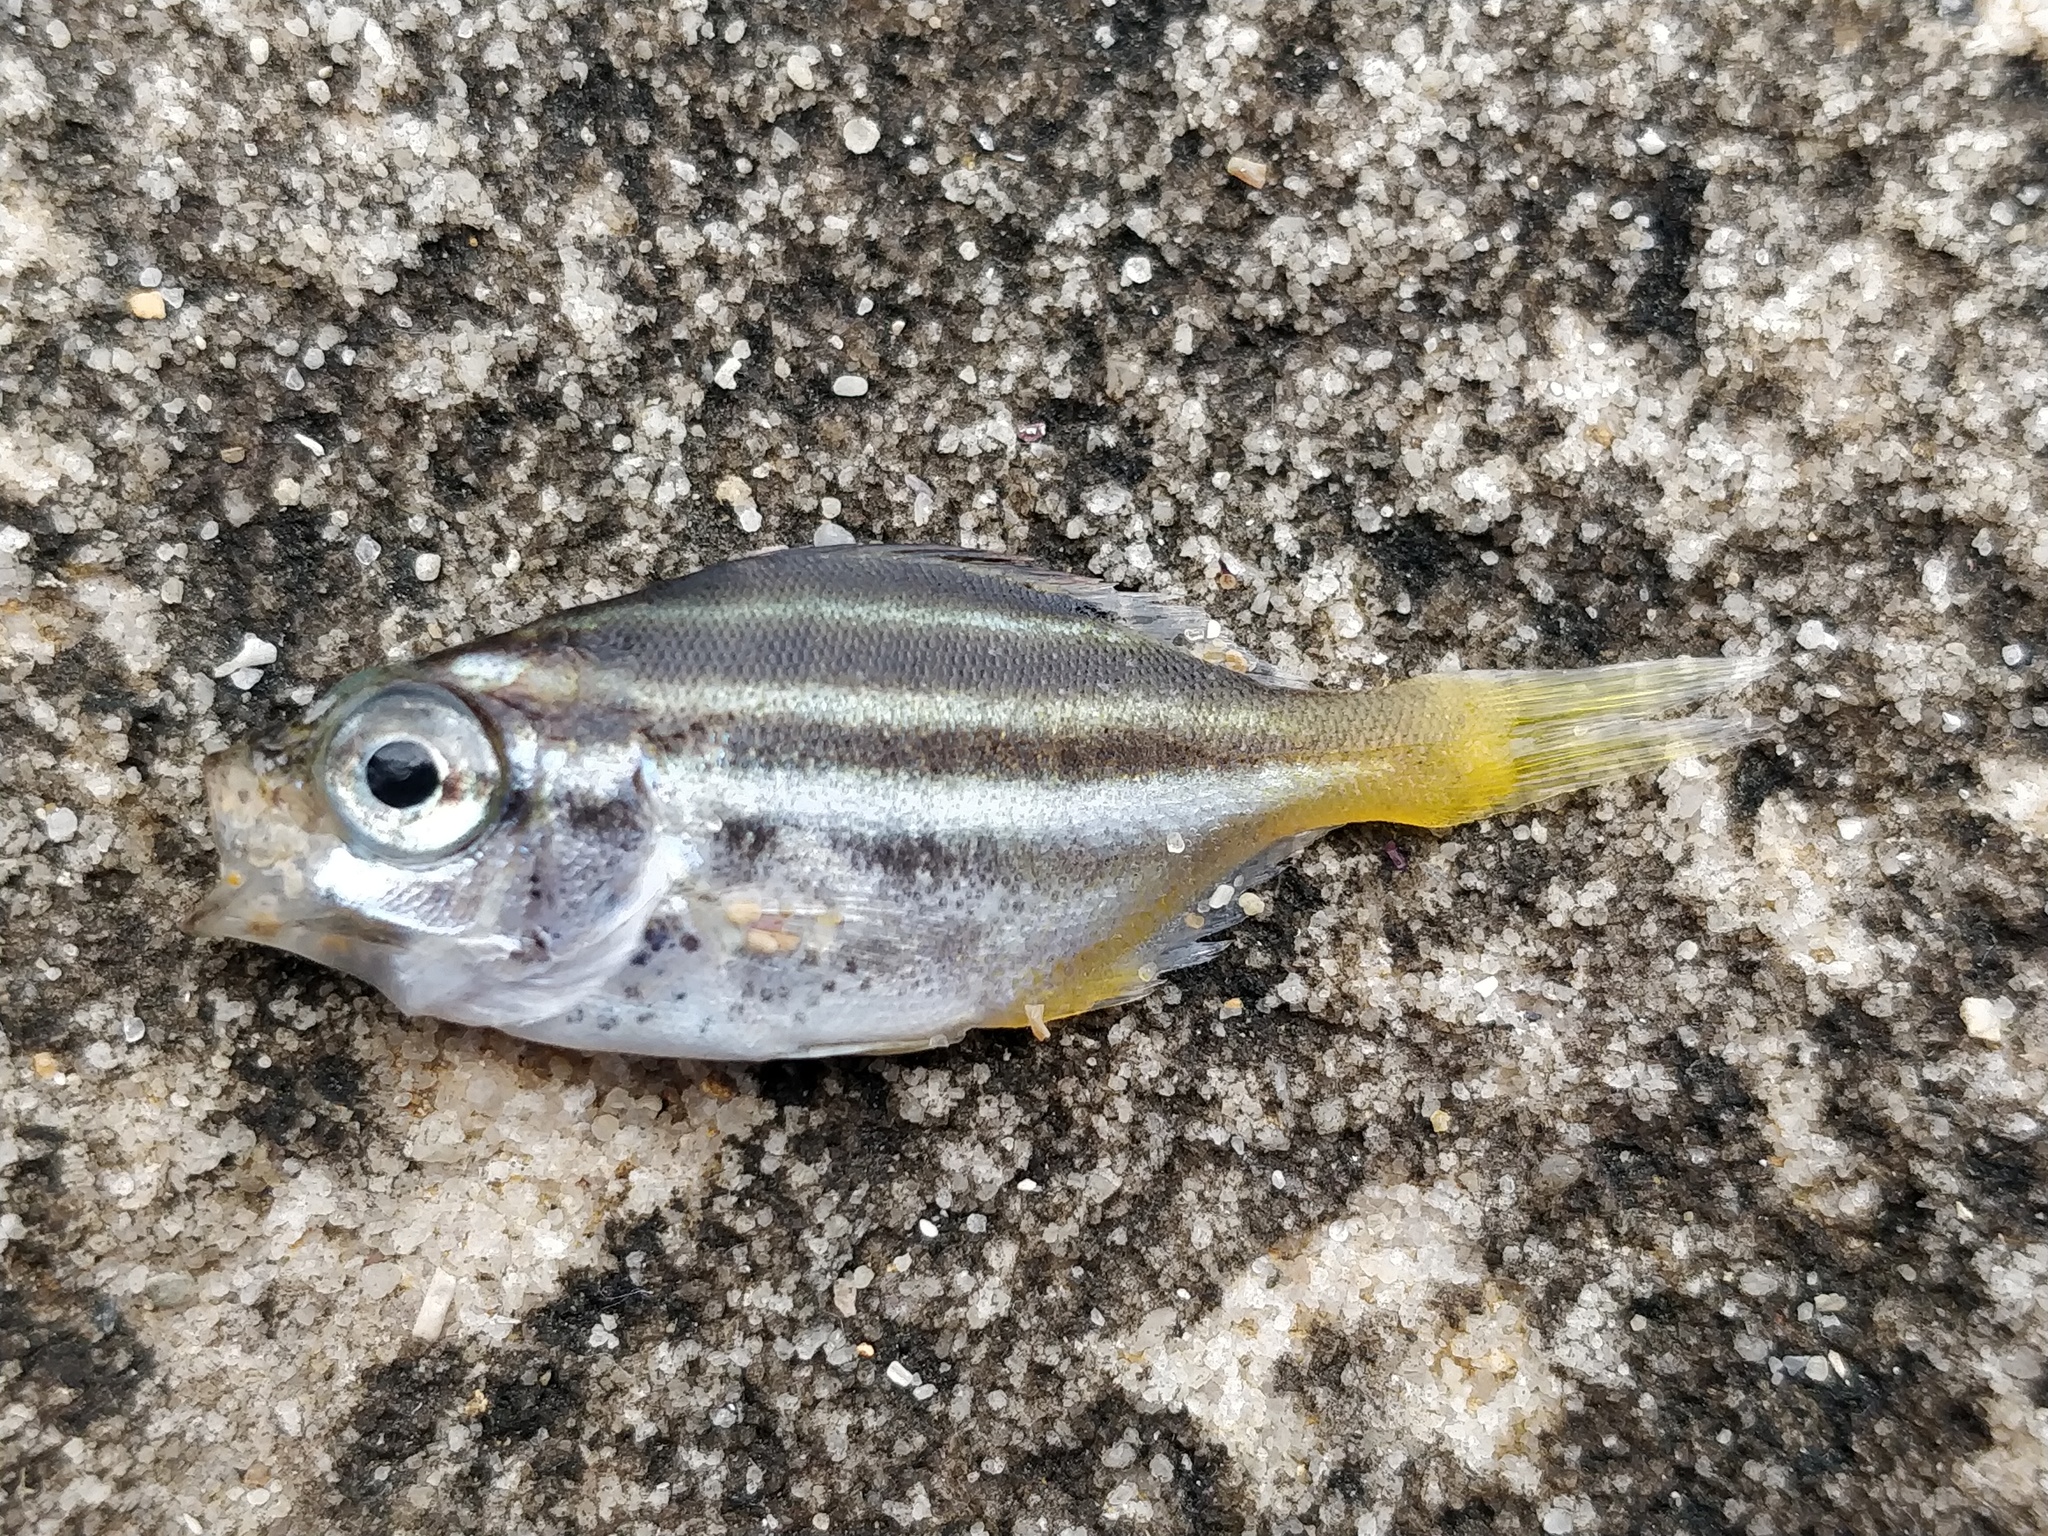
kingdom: Animalia
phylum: Chordata
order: Perciformes
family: Kyphosidae
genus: Atypichthys
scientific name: Atypichthys strigatus
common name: Australian mado
